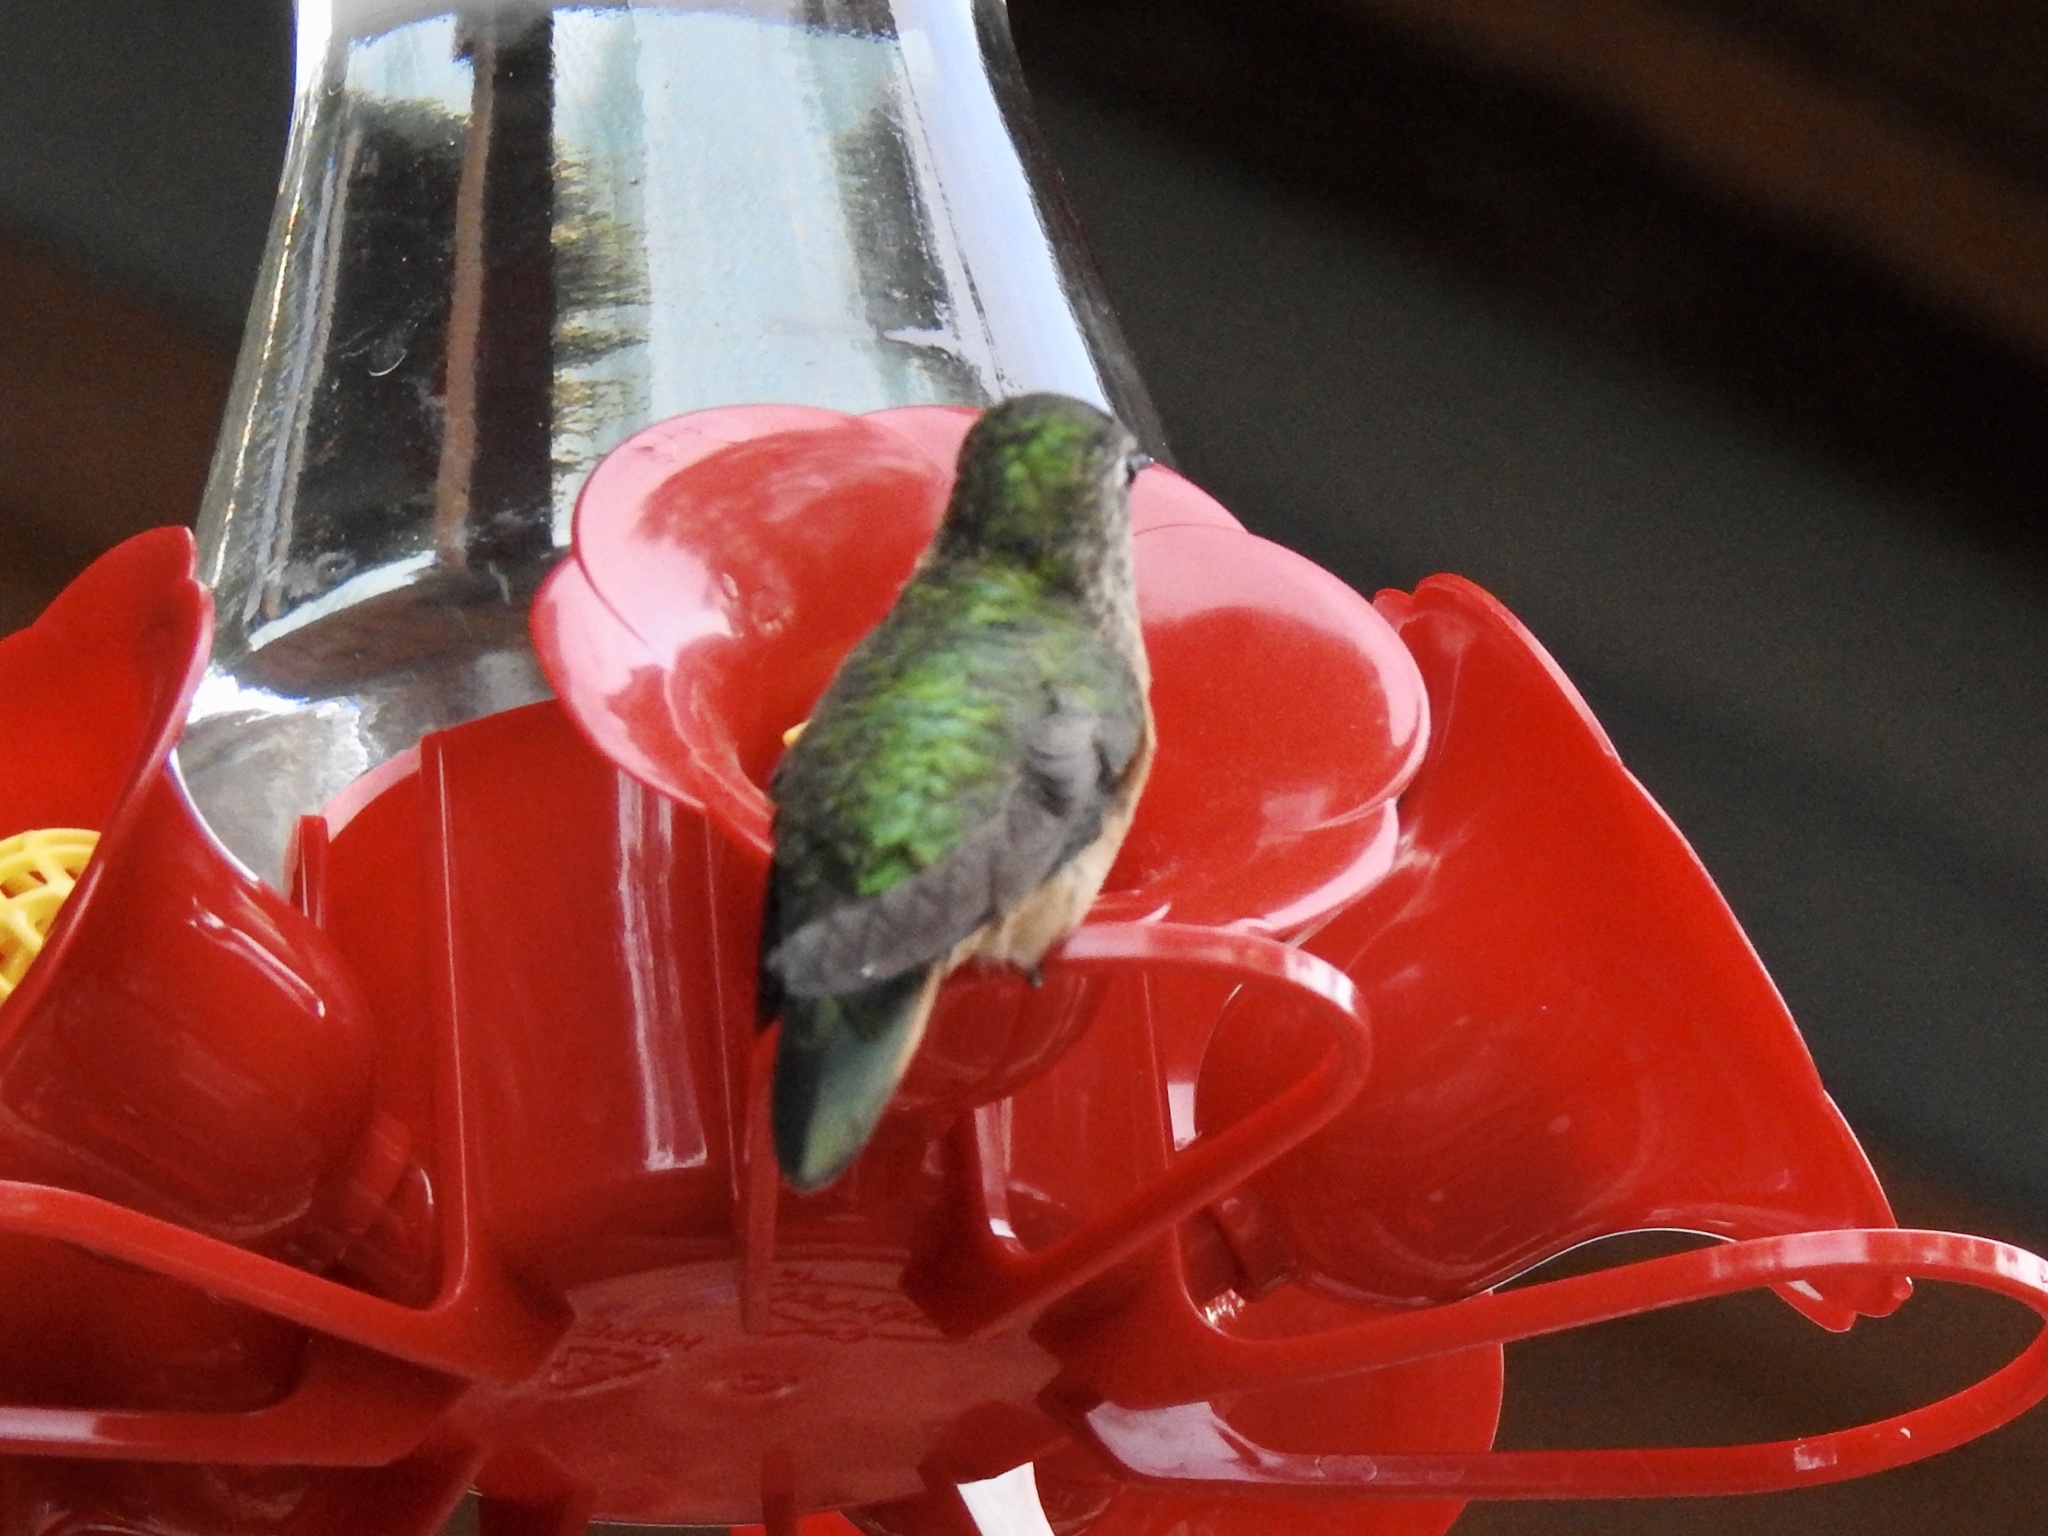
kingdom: Animalia
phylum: Chordata
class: Aves
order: Apodiformes
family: Trochilidae
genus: Selasphorus
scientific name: Selasphorus platycercus
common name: Broad-tailed hummingbird
